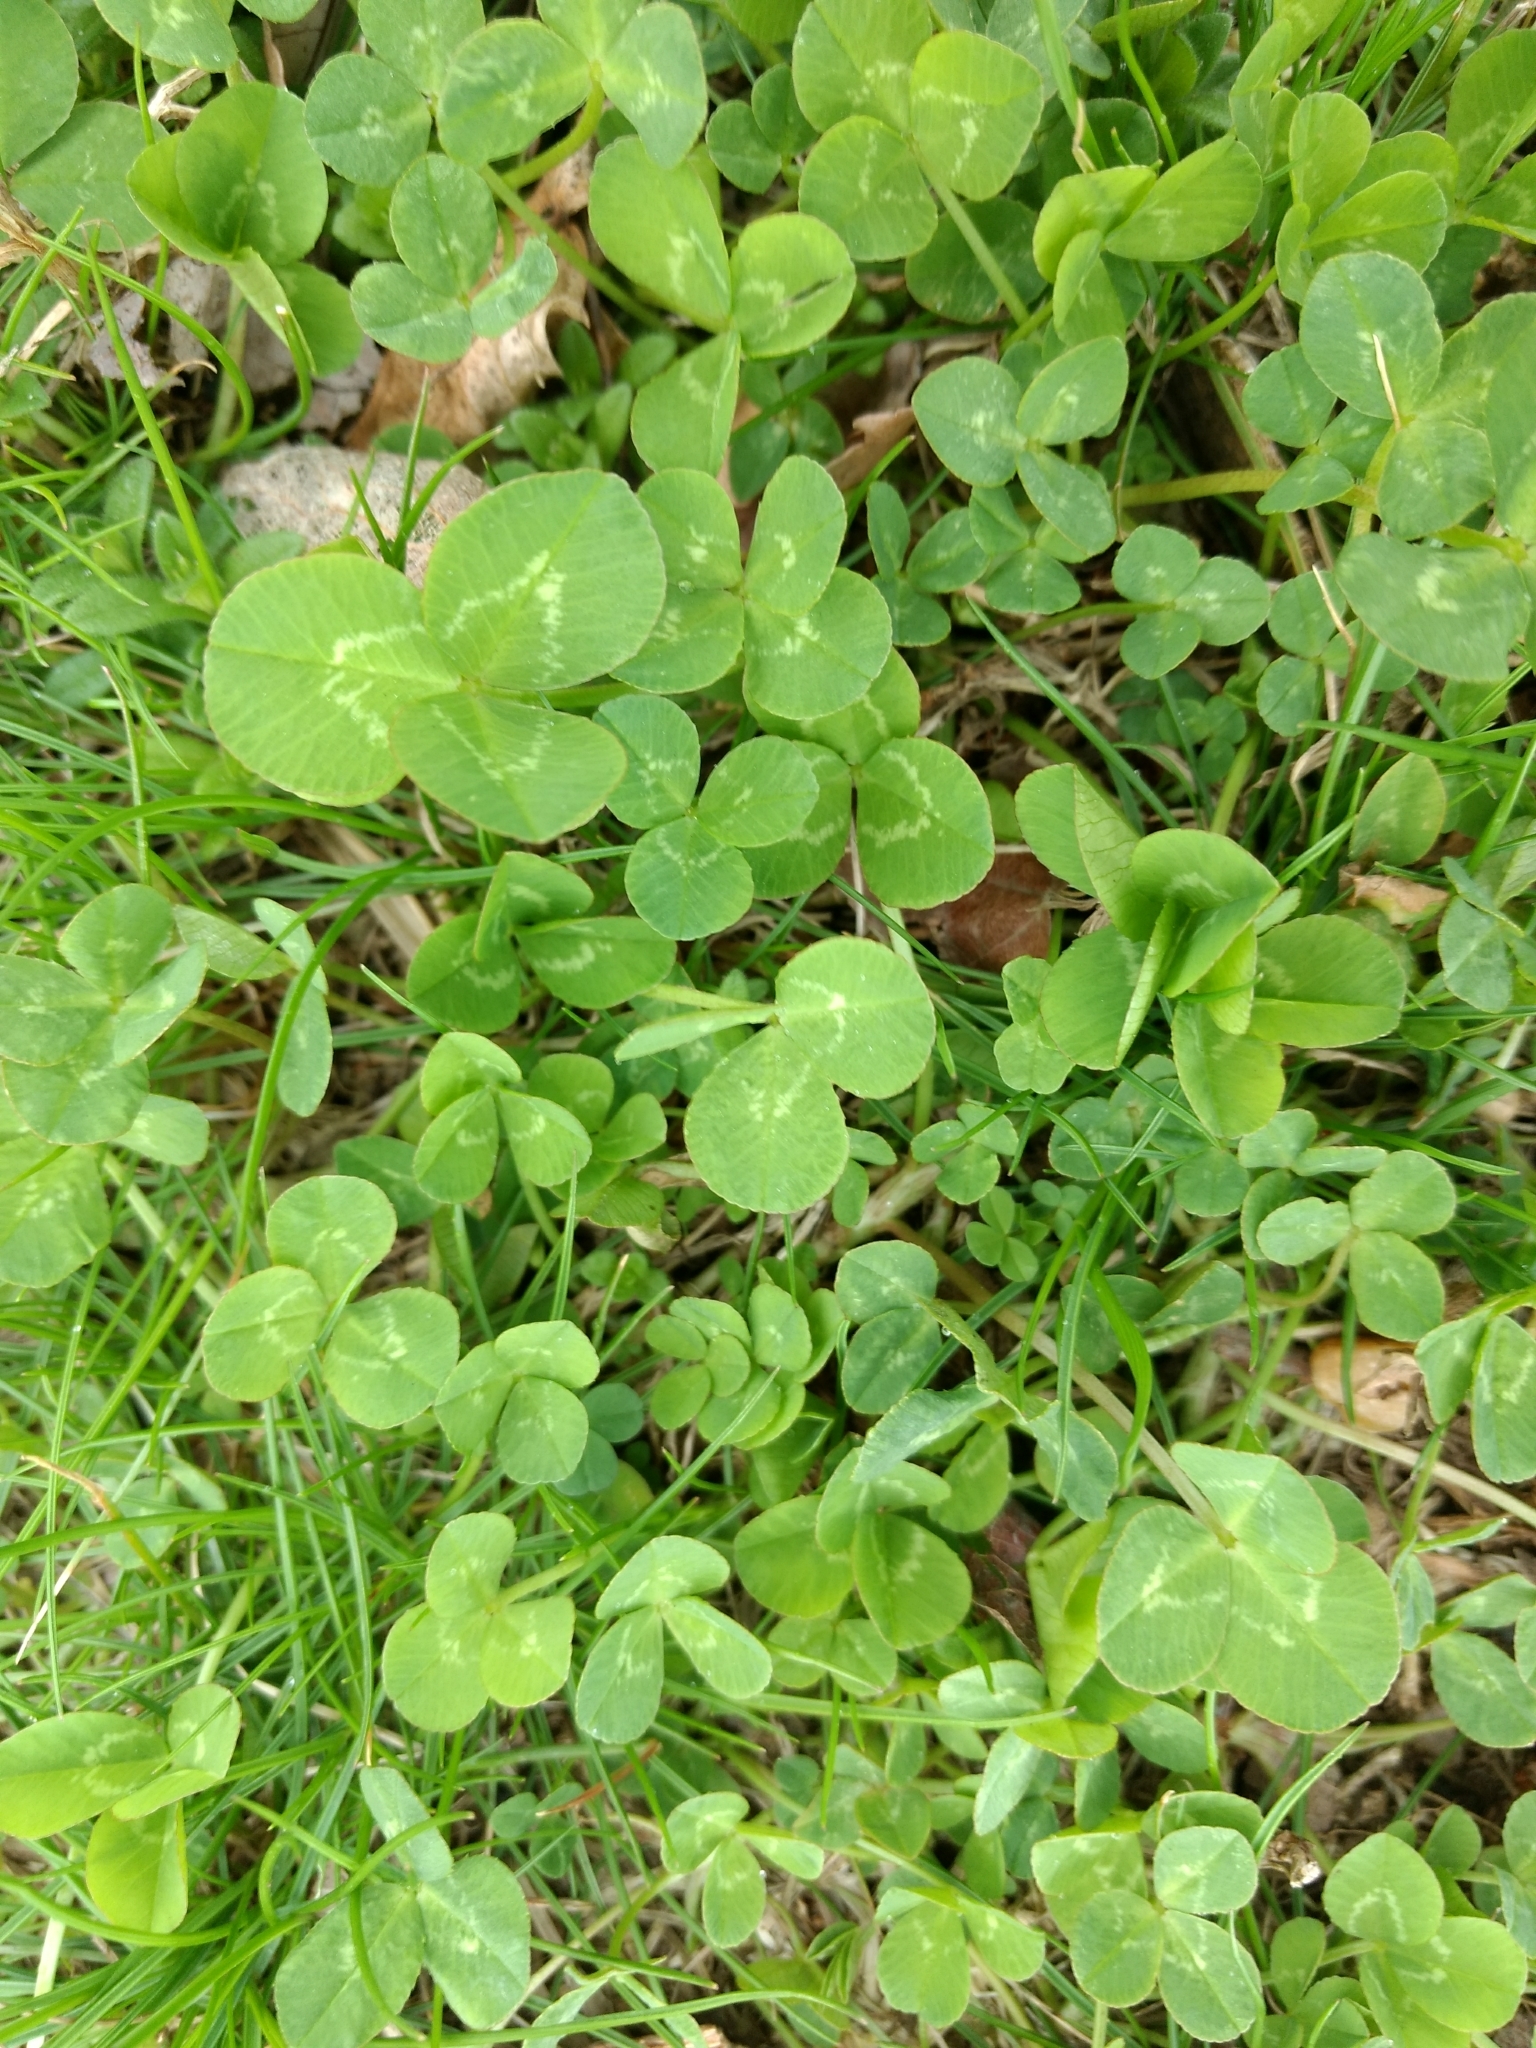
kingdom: Plantae
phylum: Tracheophyta
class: Magnoliopsida
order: Fabales
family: Fabaceae
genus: Trifolium
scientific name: Trifolium repens
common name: White clover
